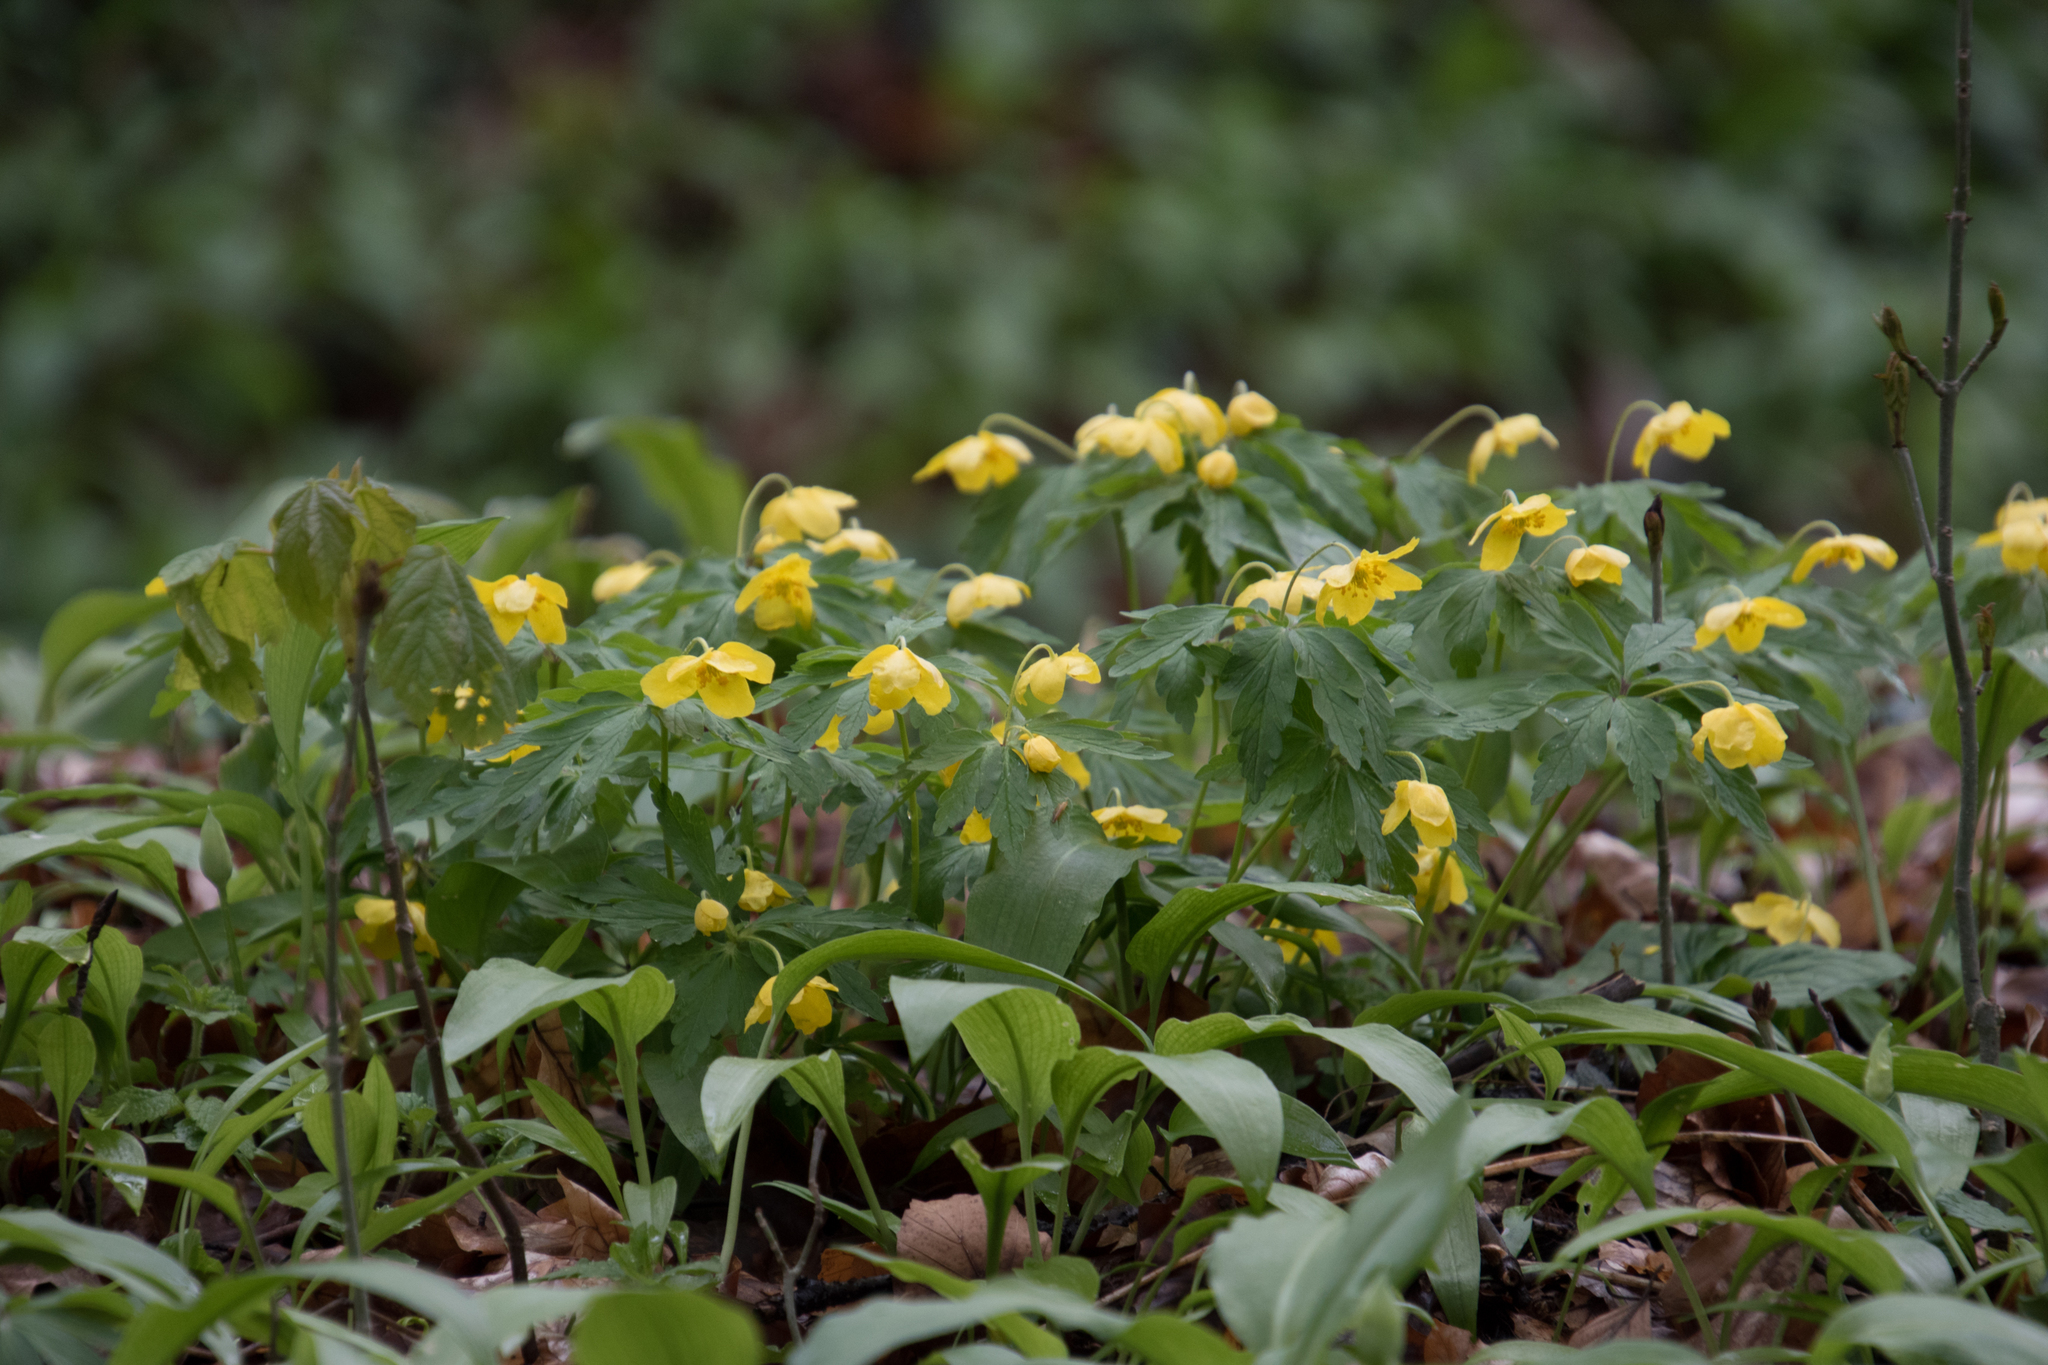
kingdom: Plantae
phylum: Tracheophyta
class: Magnoliopsida
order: Ranunculales
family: Ranunculaceae
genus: Anemone
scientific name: Anemone ranunculoides
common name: Yellow anemone
